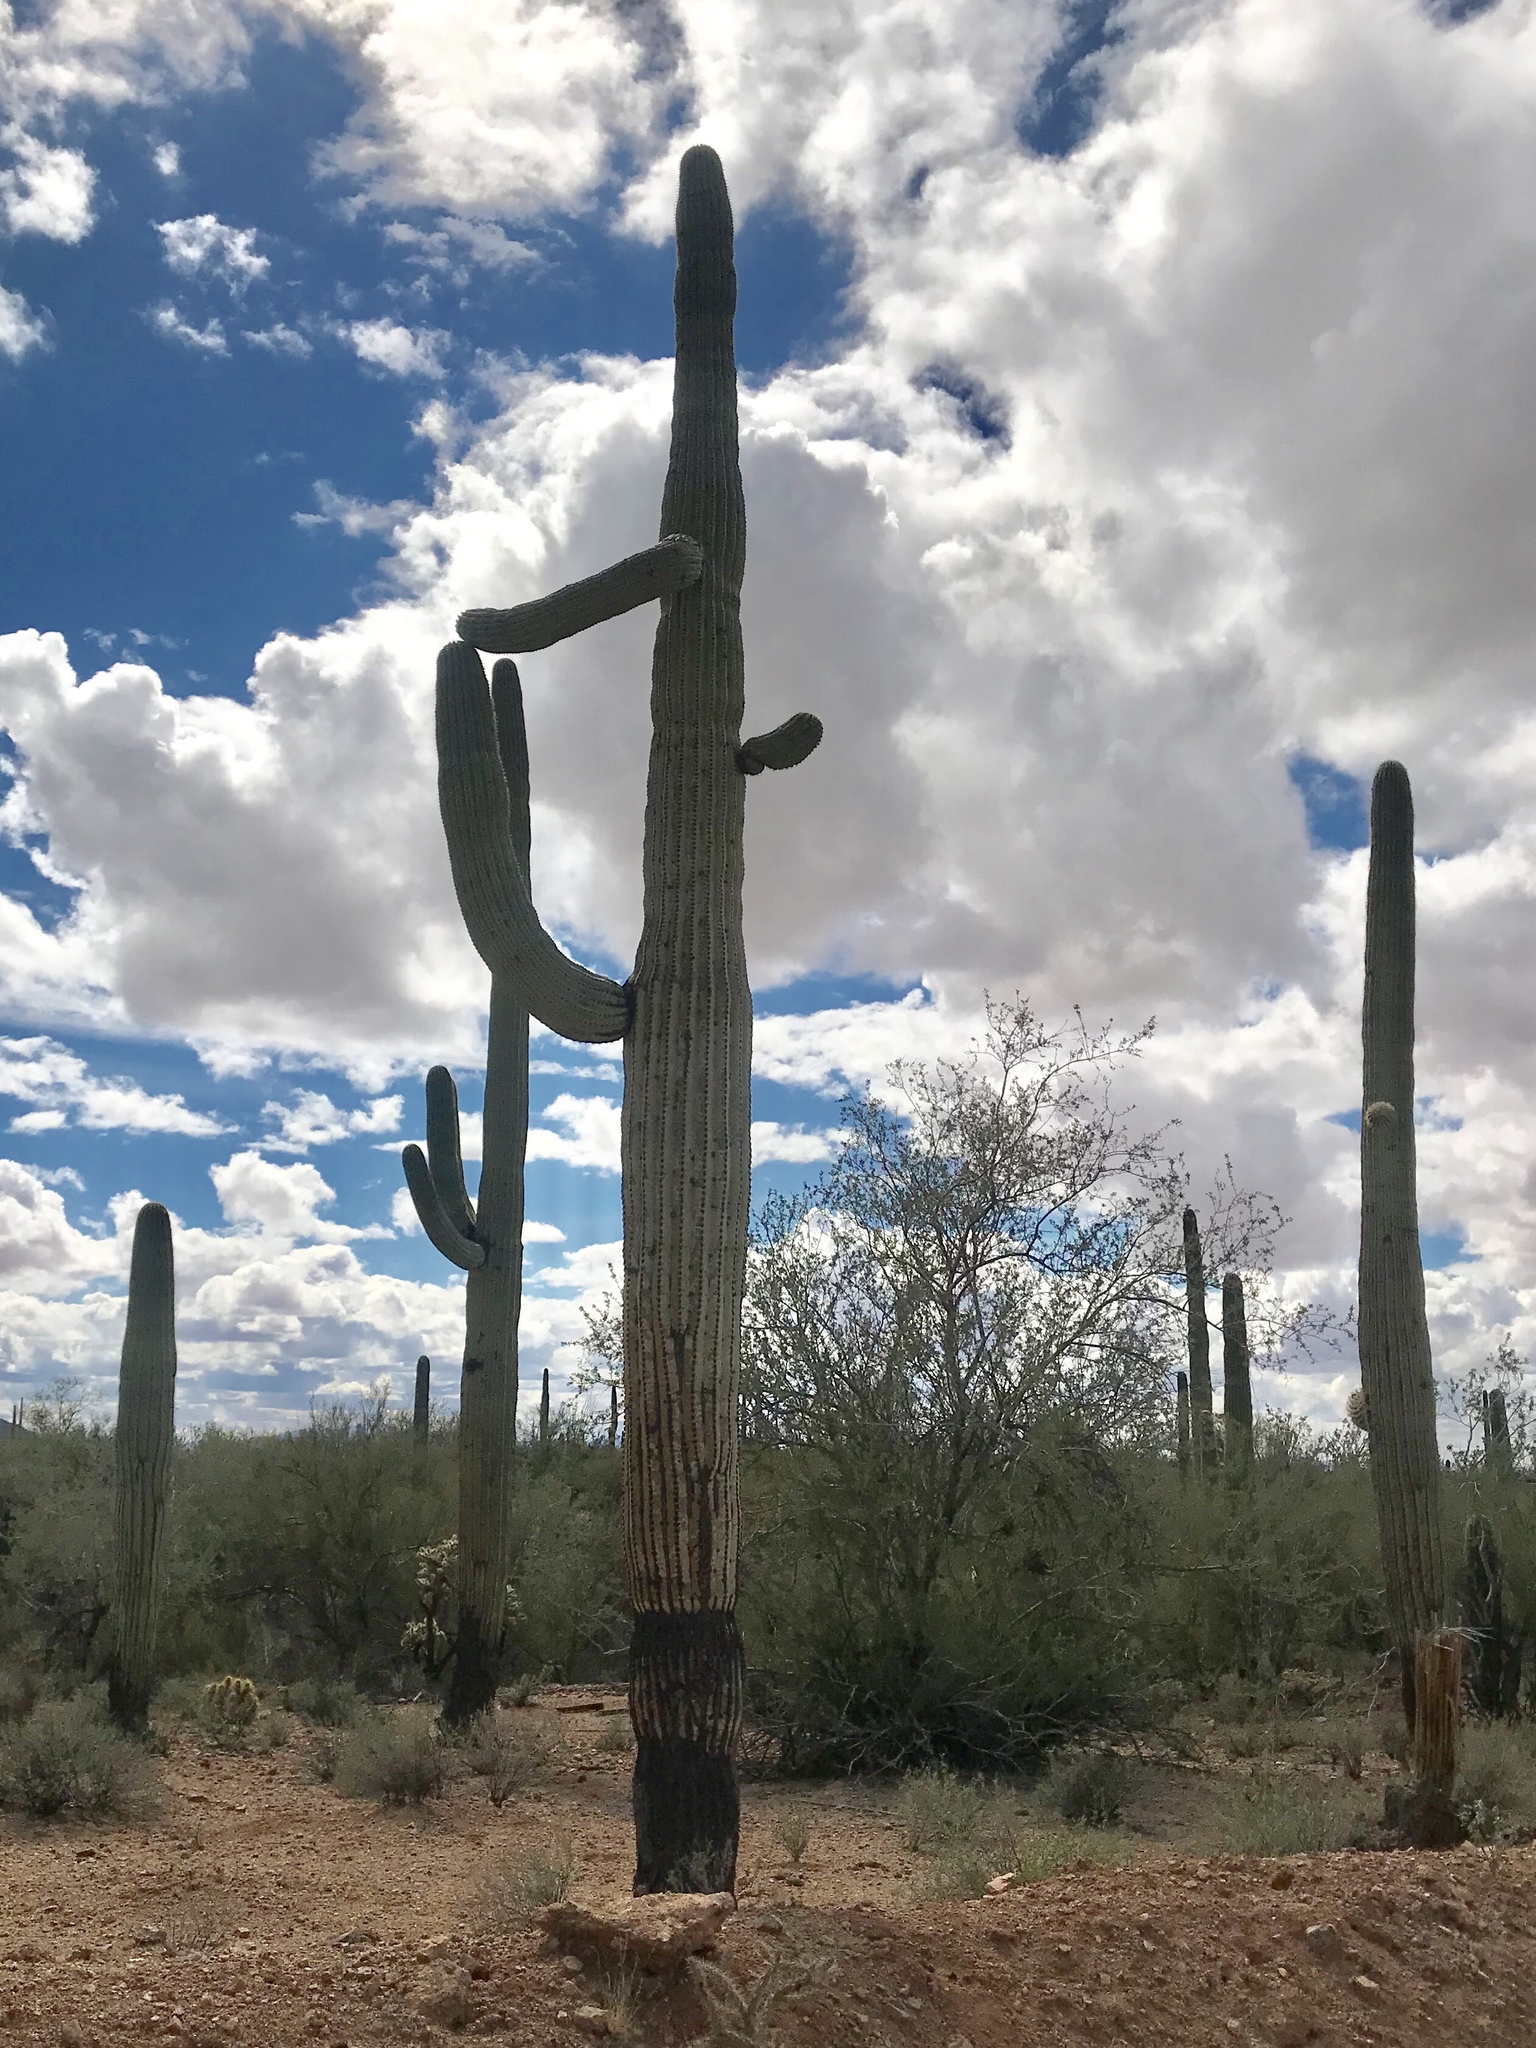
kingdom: Plantae
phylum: Tracheophyta
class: Magnoliopsida
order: Caryophyllales
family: Cactaceae
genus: Carnegiea
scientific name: Carnegiea gigantea
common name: Saguaro
